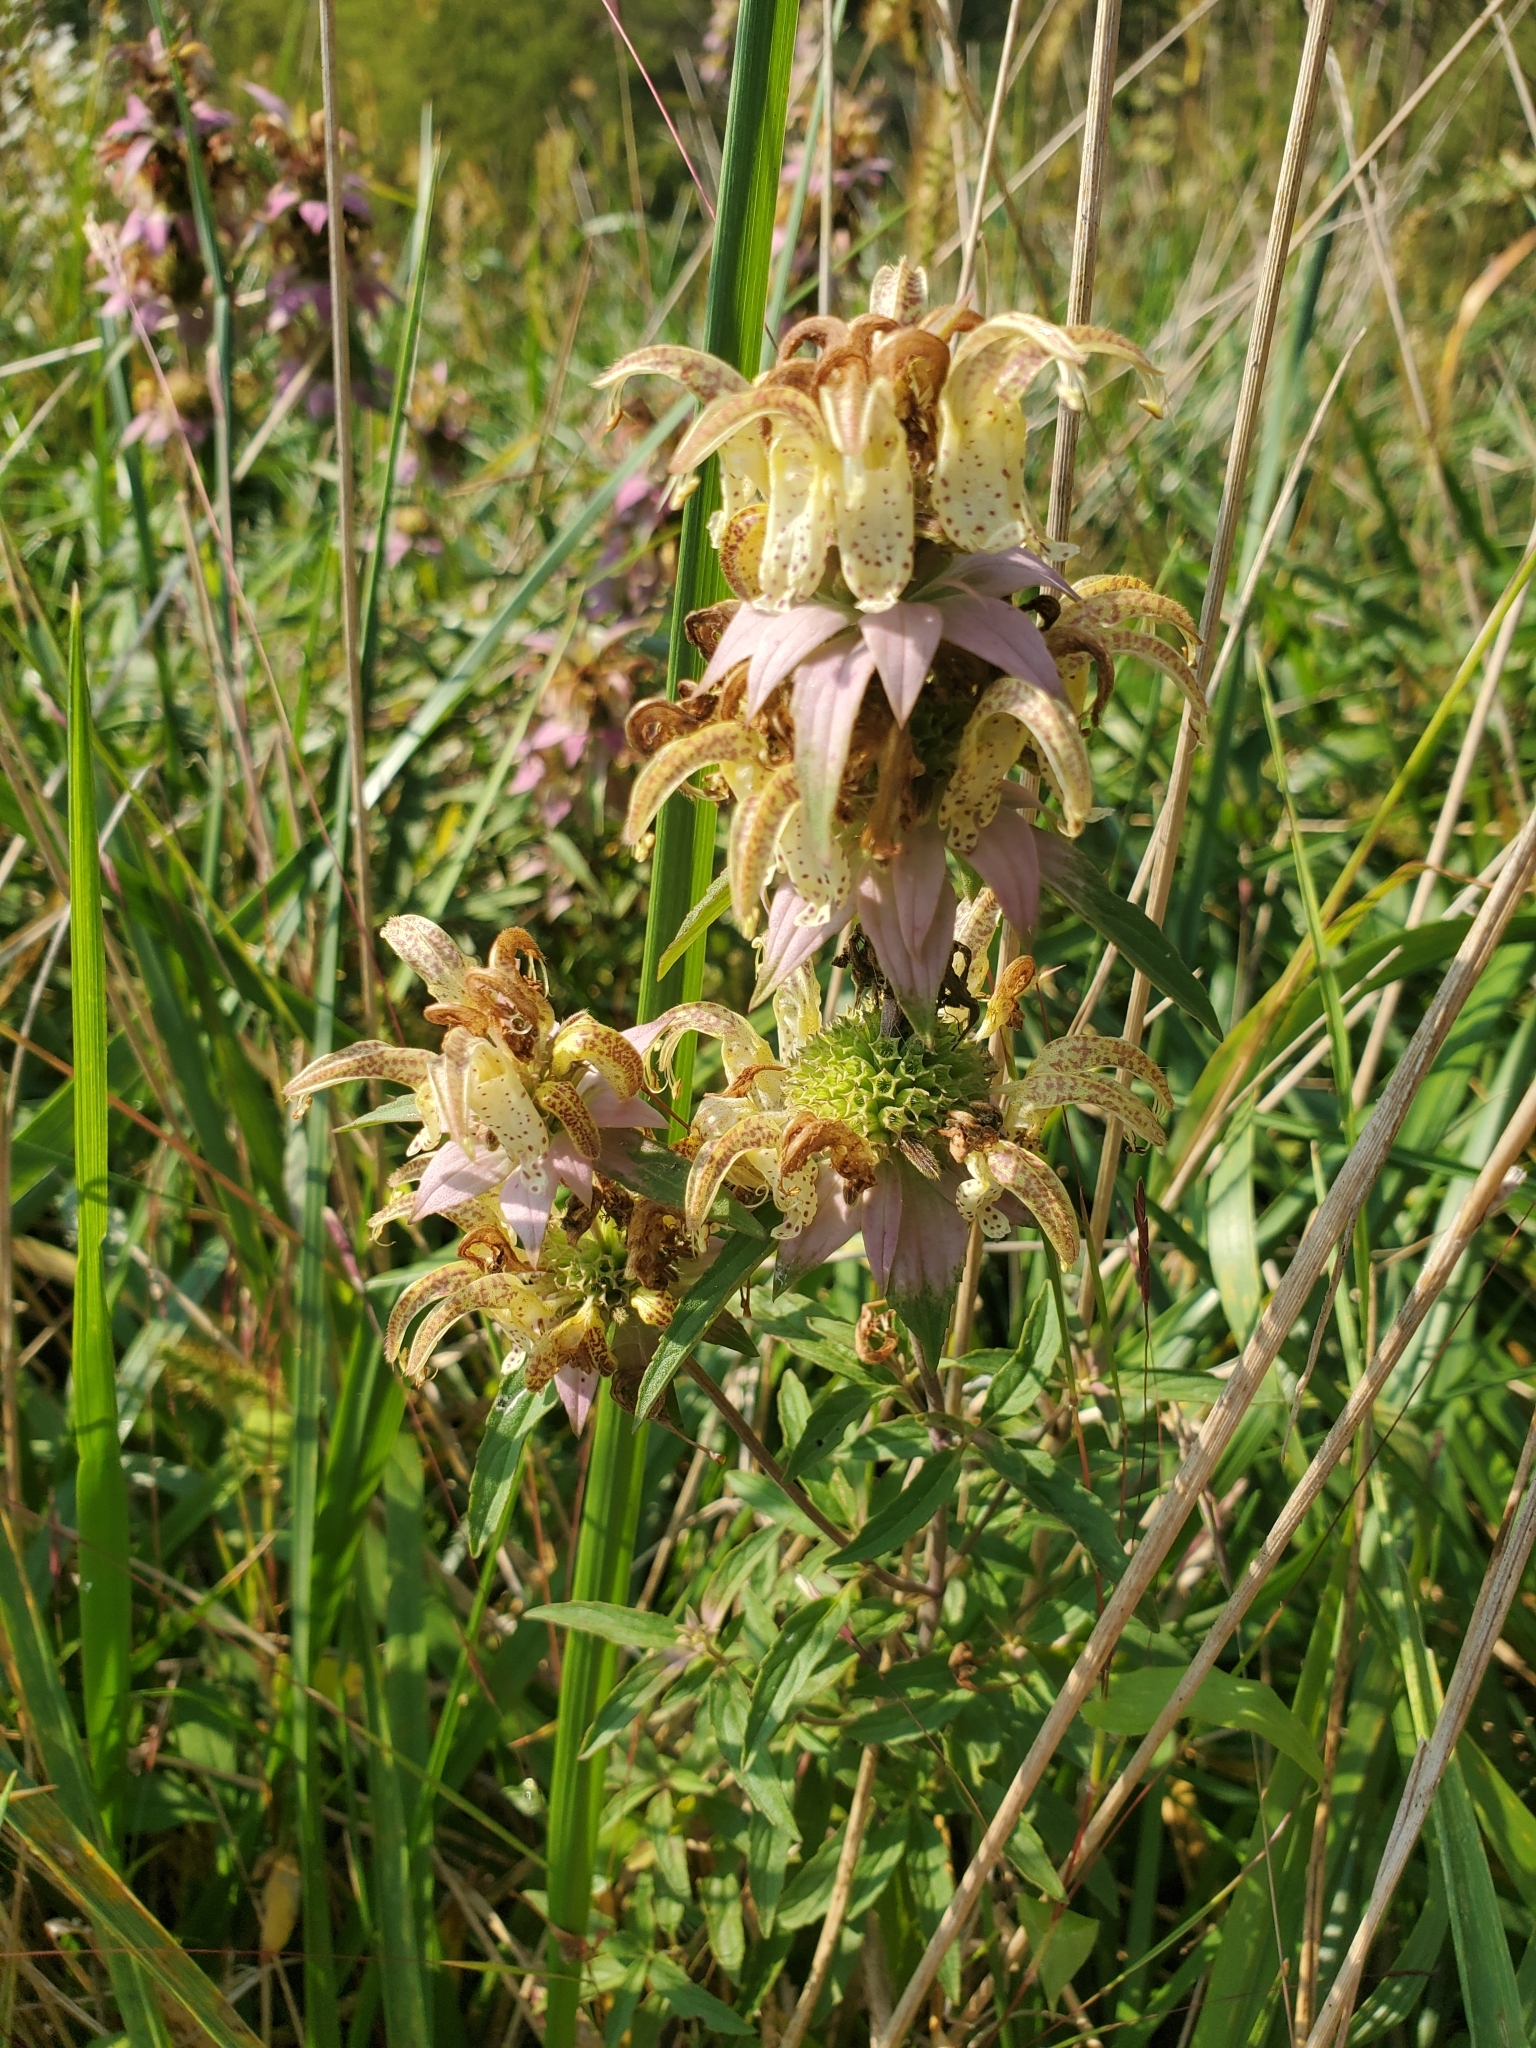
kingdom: Plantae
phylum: Tracheophyta
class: Magnoliopsida
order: Lamiales
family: Lamiaceae
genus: Monarda
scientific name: Monarda punctata
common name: Dotted monarda
